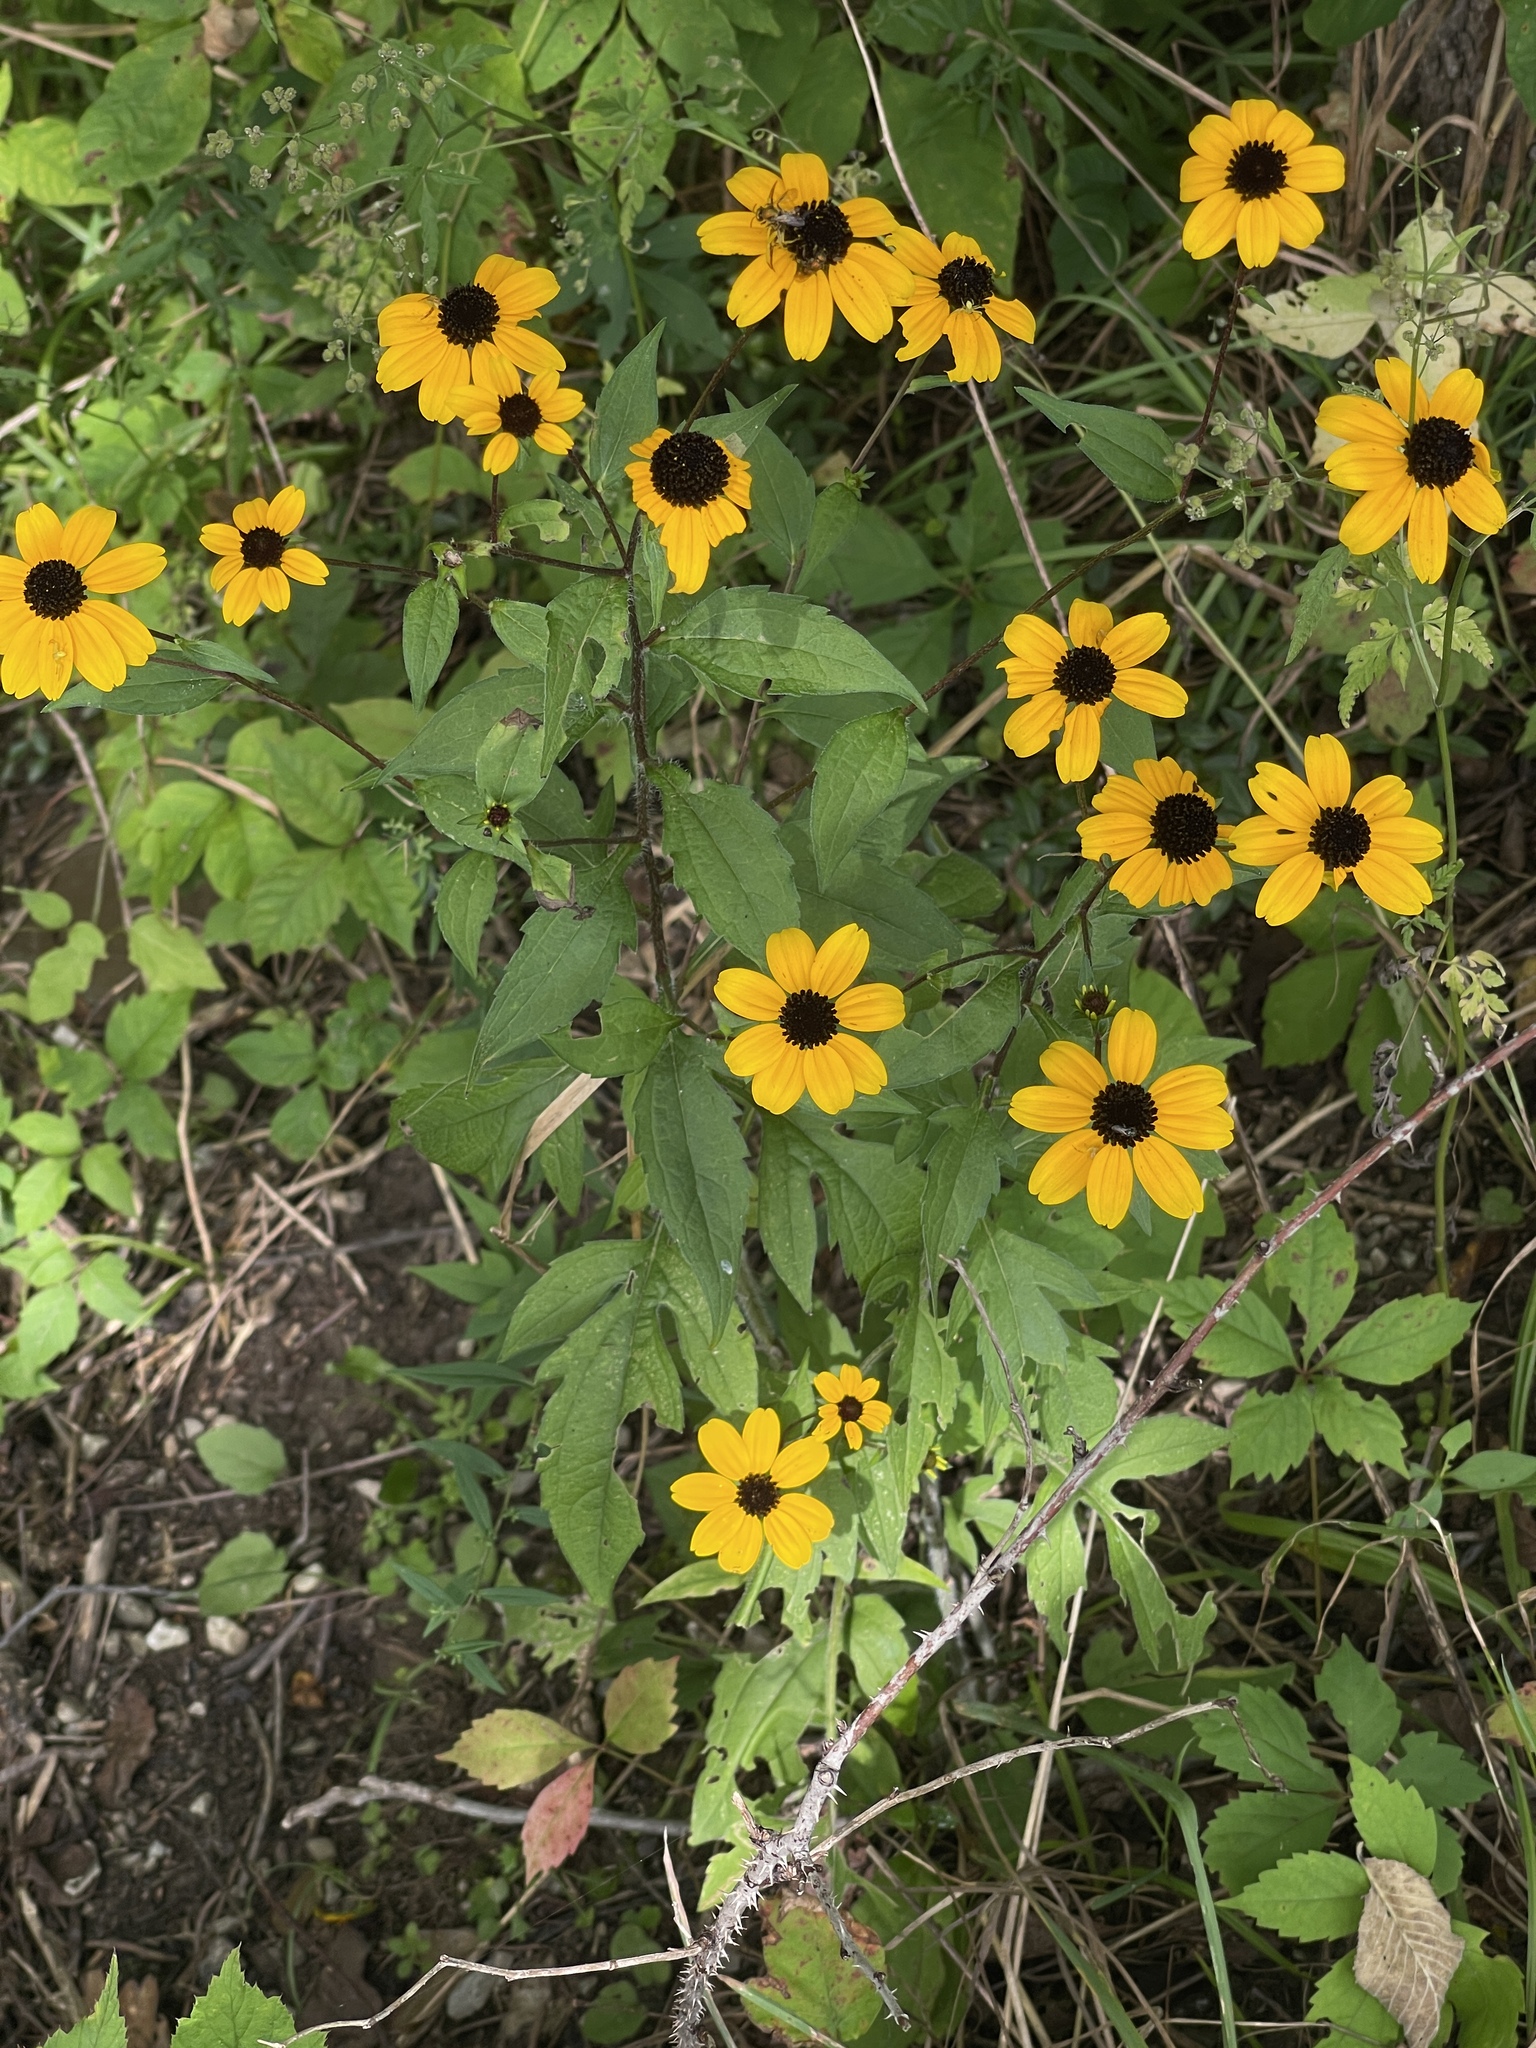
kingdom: Plantae
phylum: Tracheophyta
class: Magnoliopsida
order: Asterales
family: Asteraceae
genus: Rudbeckia
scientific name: Rudbeckia triloba
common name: Thin-leaved coneflower
